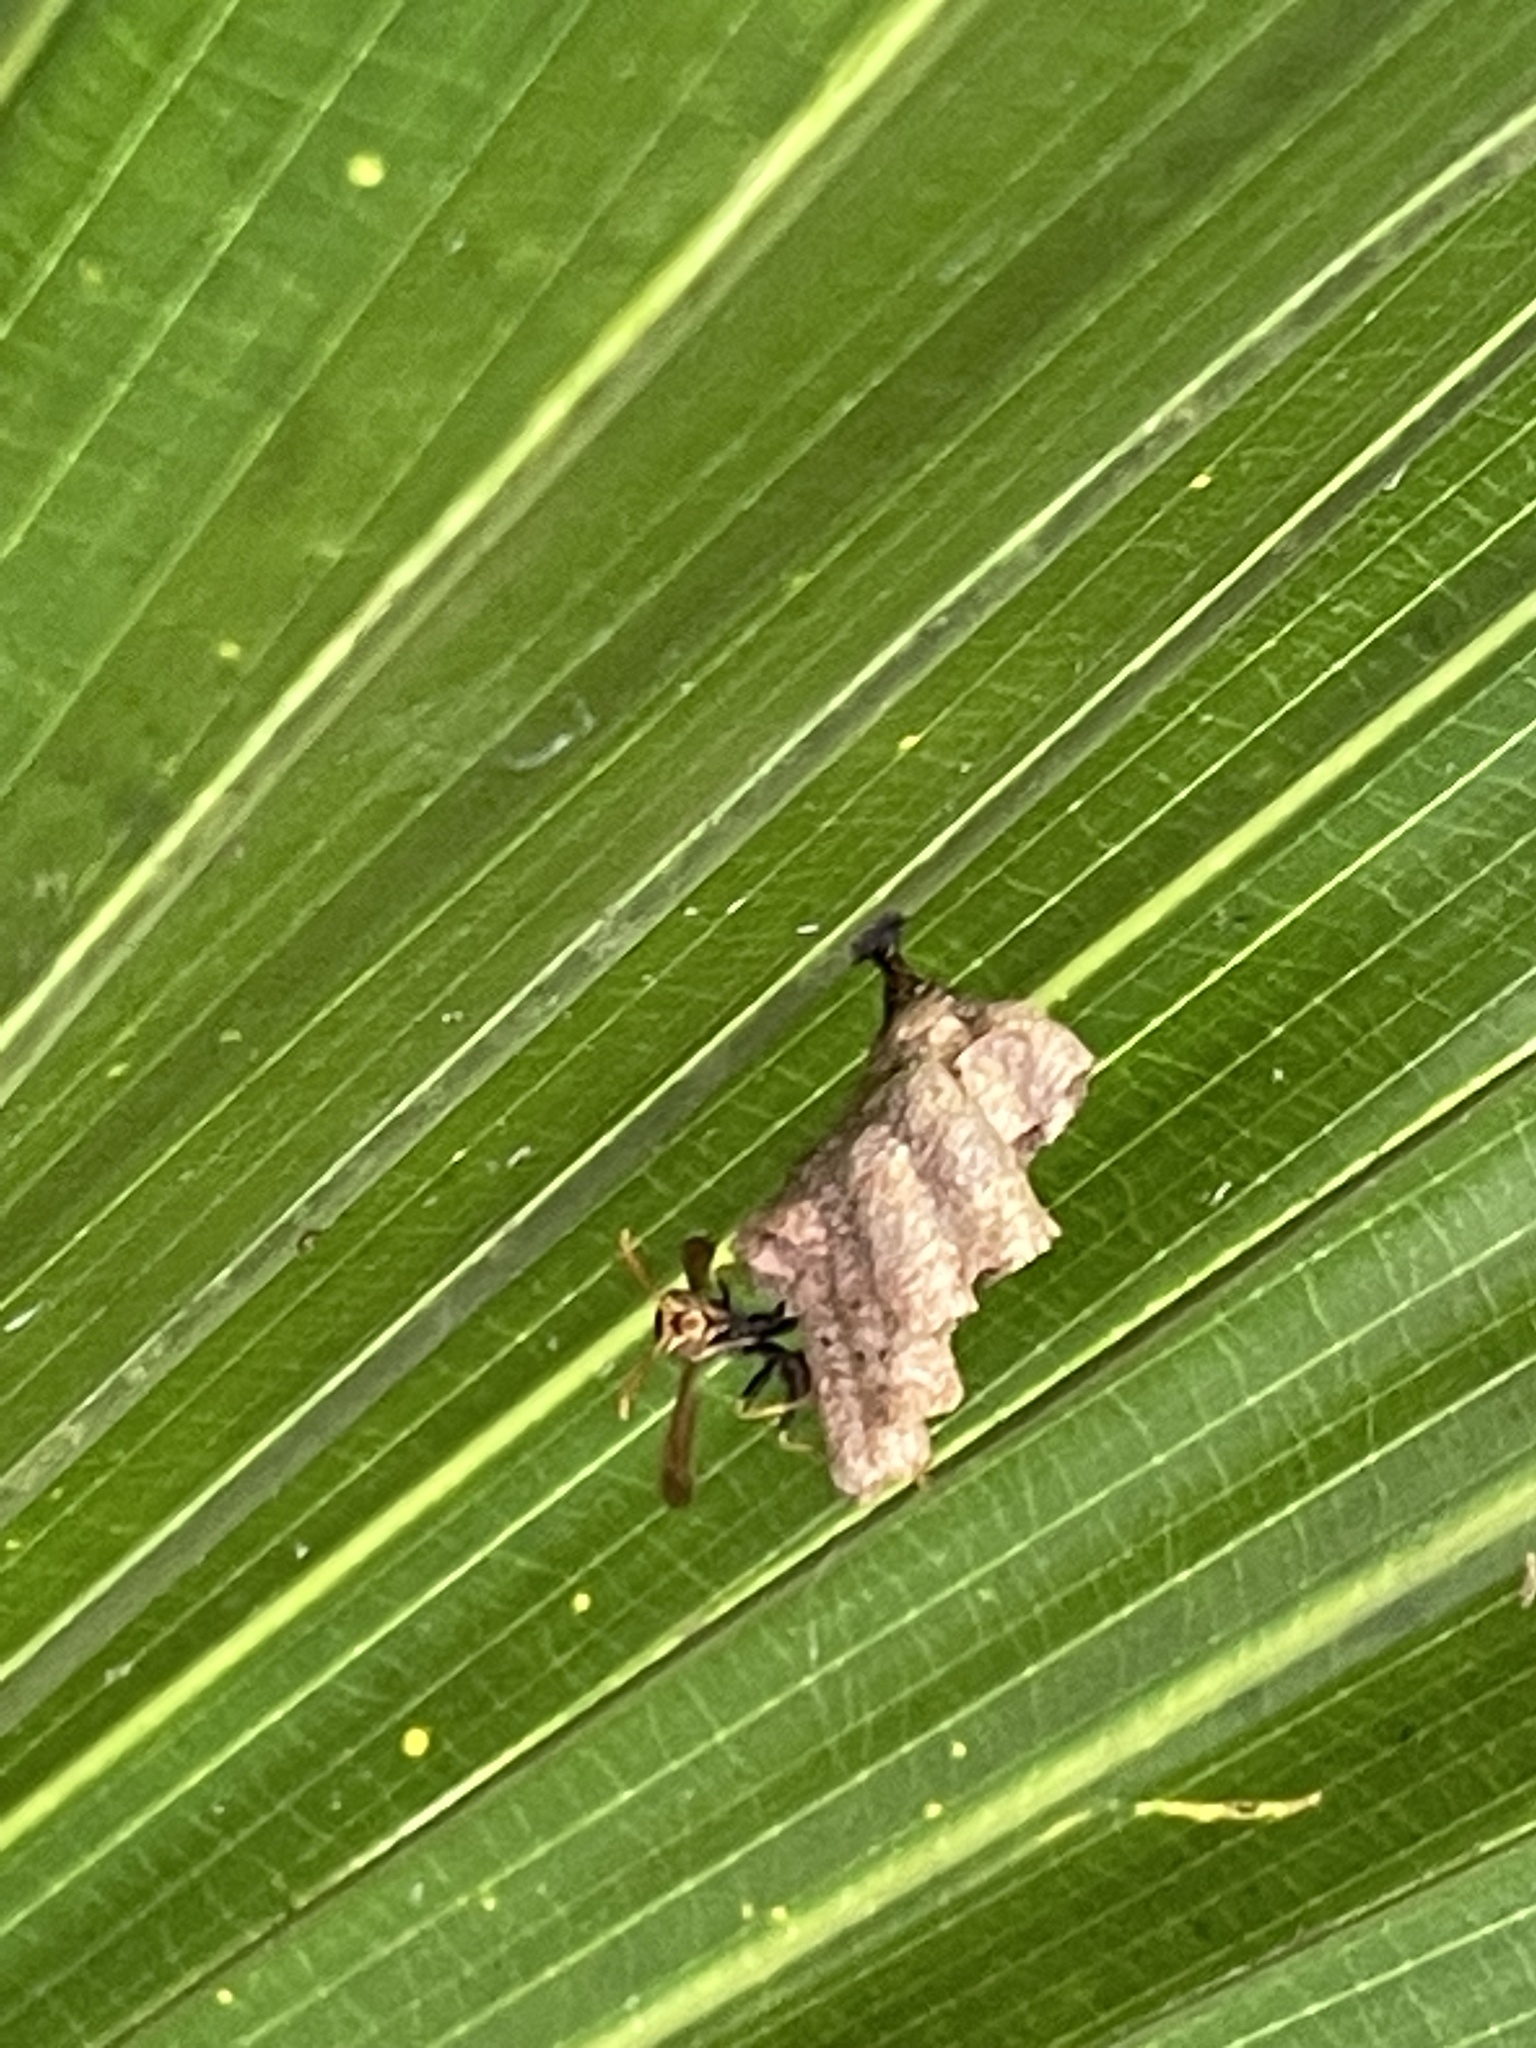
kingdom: Animalia
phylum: Arthropoda
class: Insecta
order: Hymenoptera
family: Vespidae
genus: Mischocyttarus
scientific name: Mischocyttarus mexicanus
